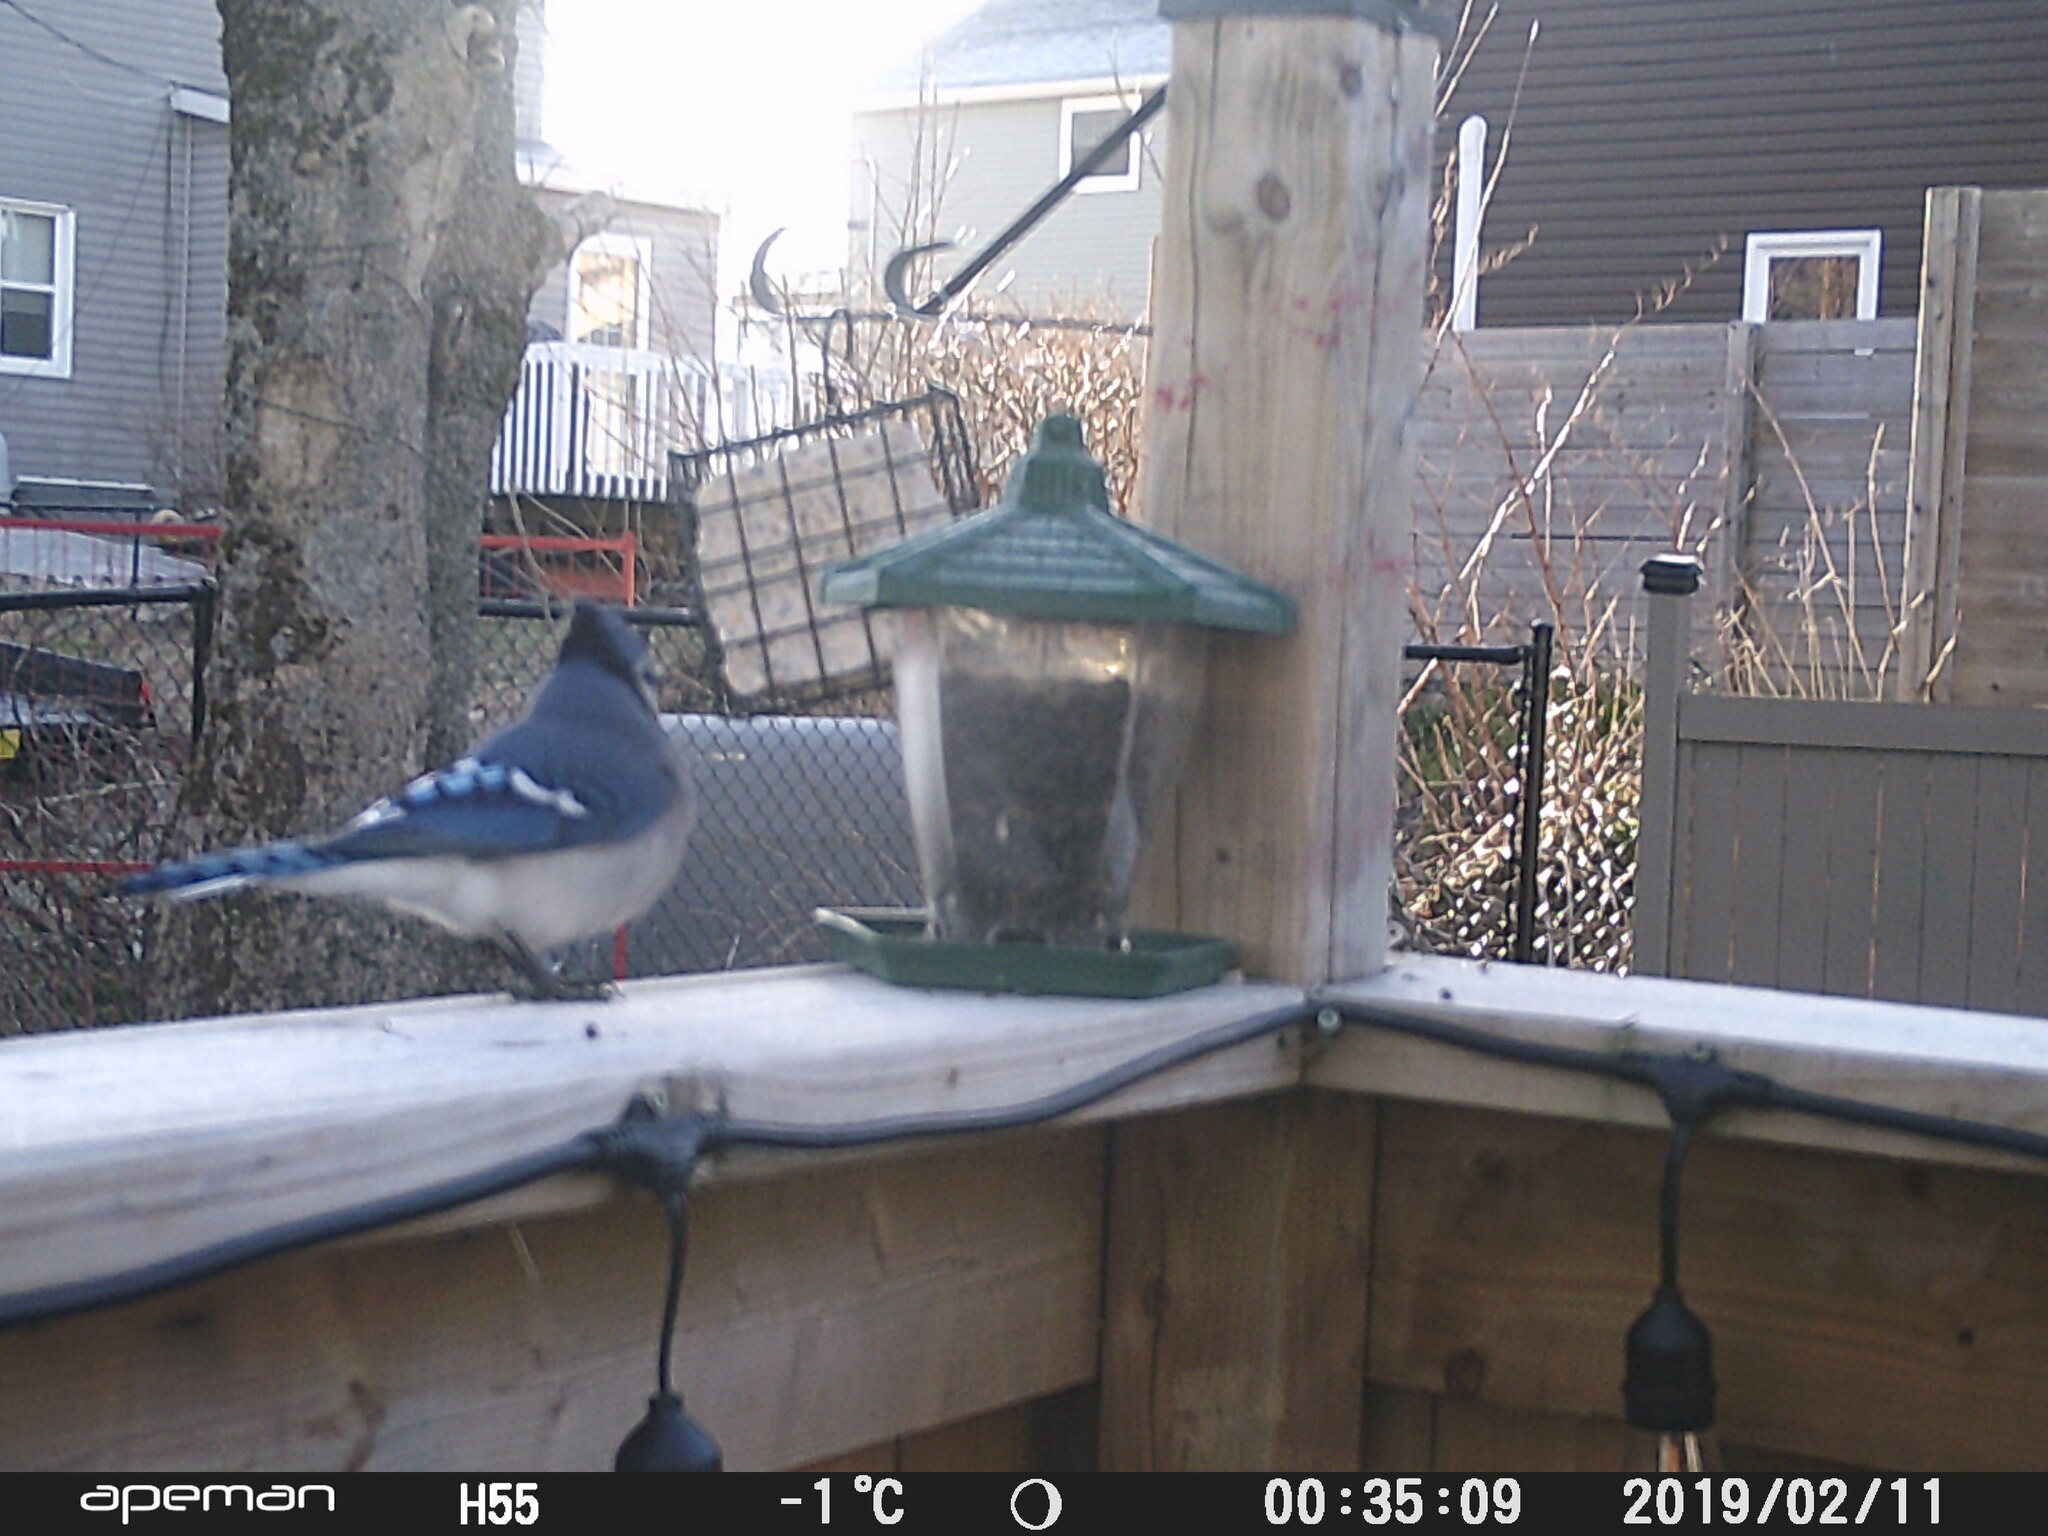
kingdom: Animalia
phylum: Chordata
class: Aves
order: Passeriformes
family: Corvidae
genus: Cyanocitta
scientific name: Cyanocitta cristata
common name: Blue jay
